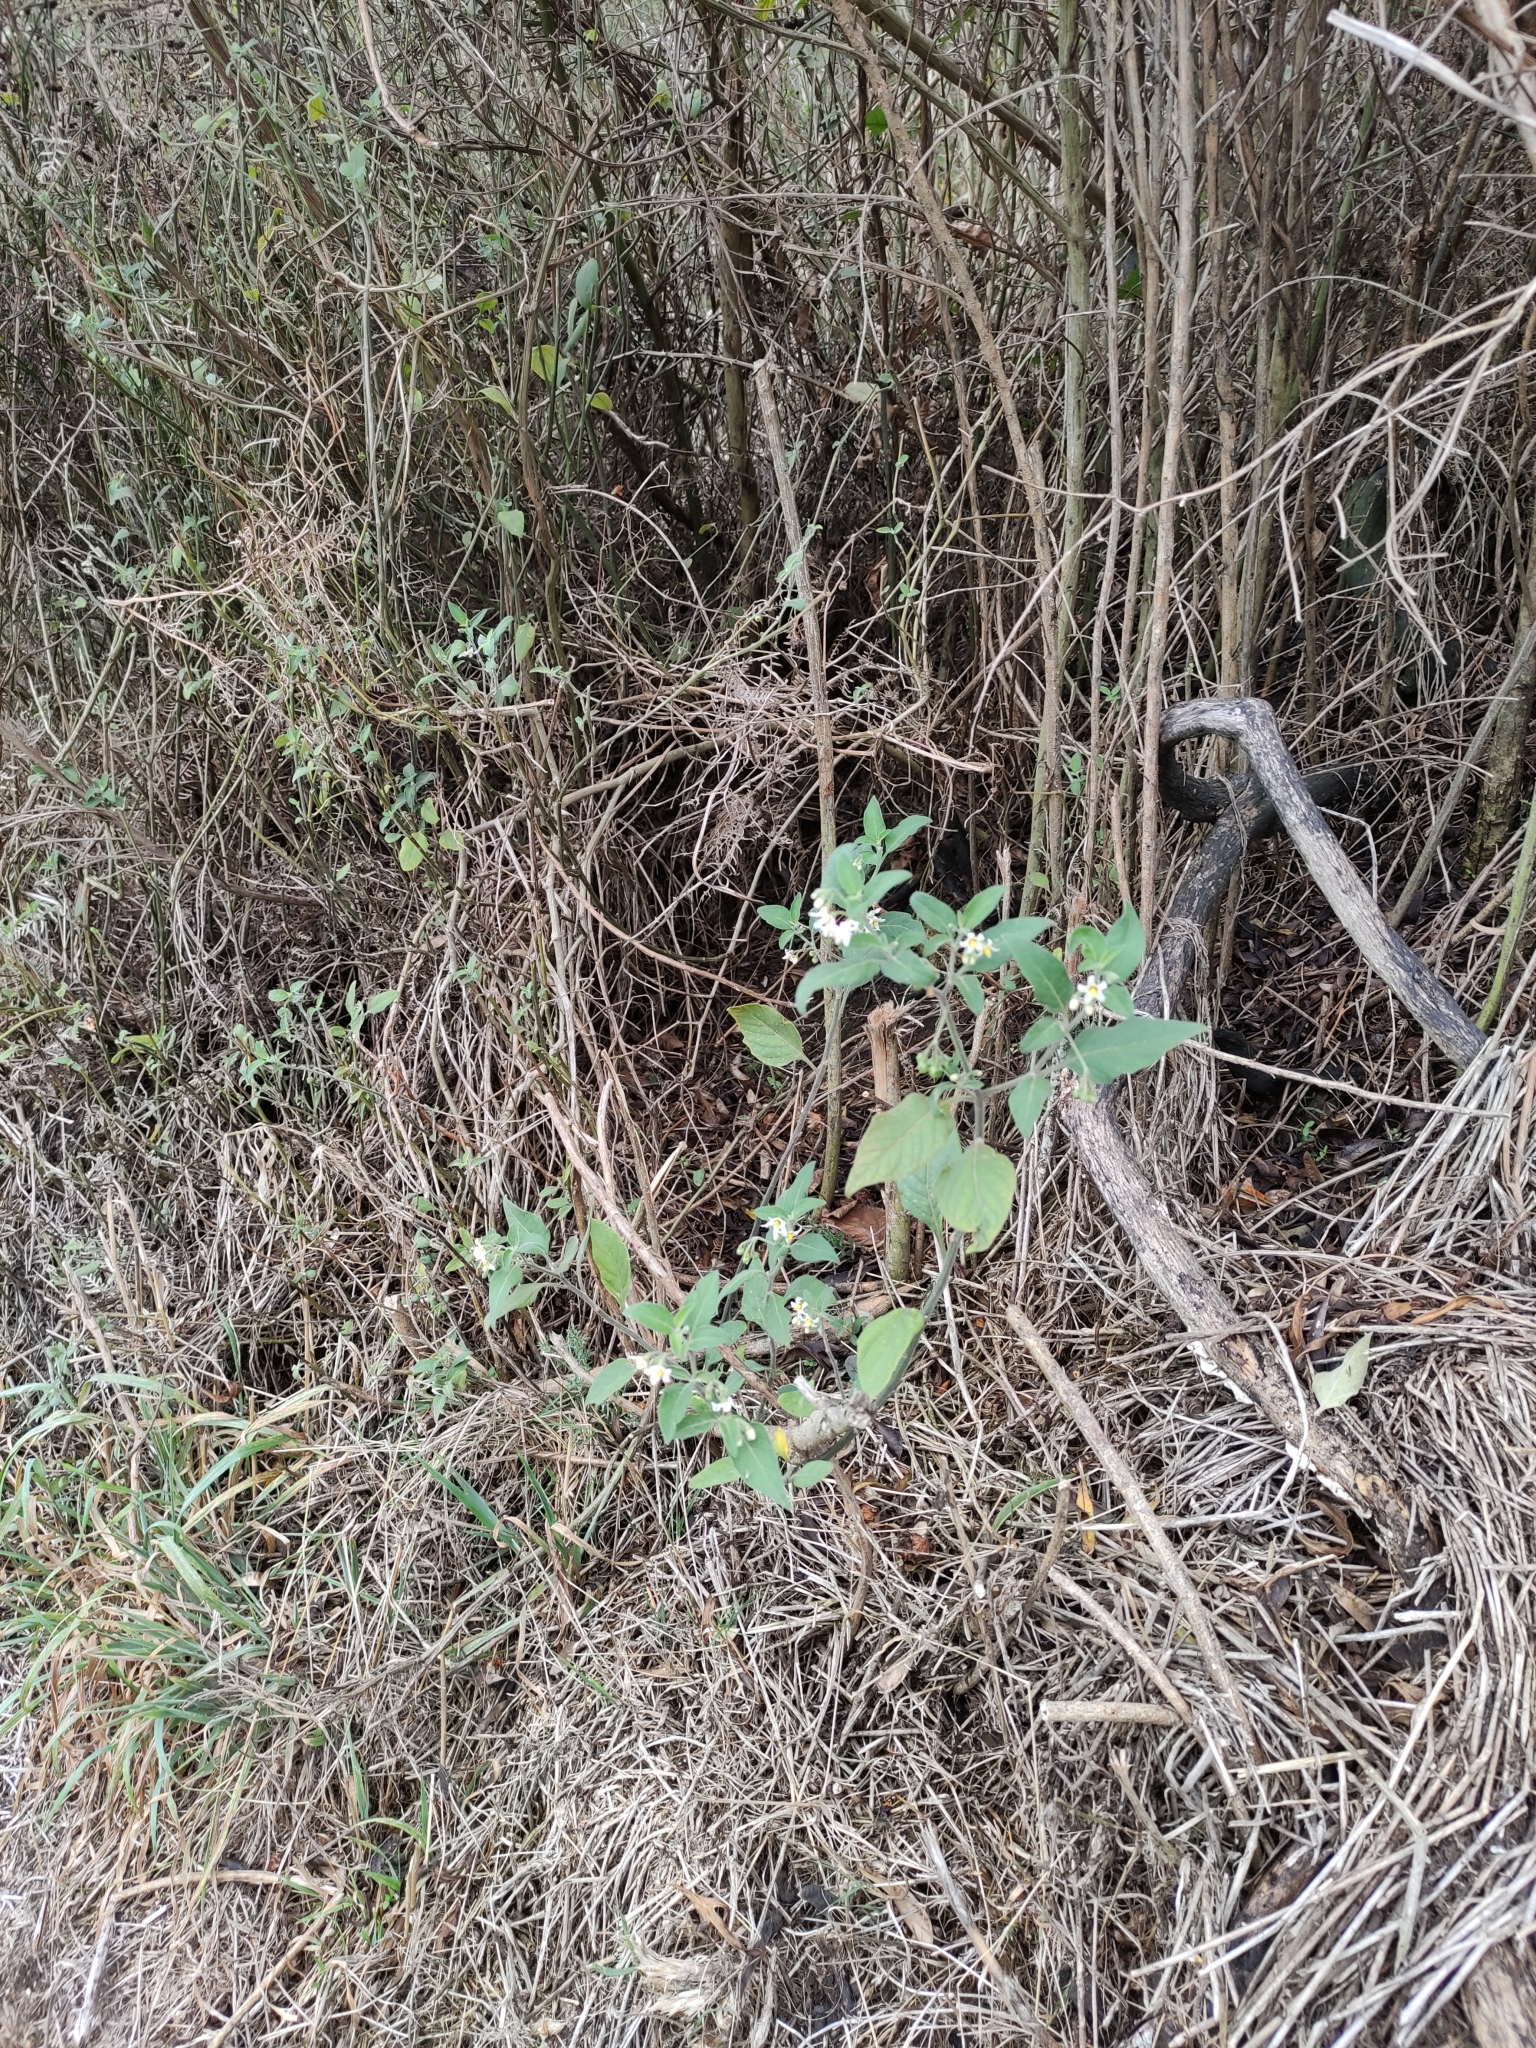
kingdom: Plantae
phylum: Tracheophyta
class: Magnoliopsida
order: Solanales
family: Solanaceae
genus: Solanum
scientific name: Solanum chenopodioides
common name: Tall nightshade
